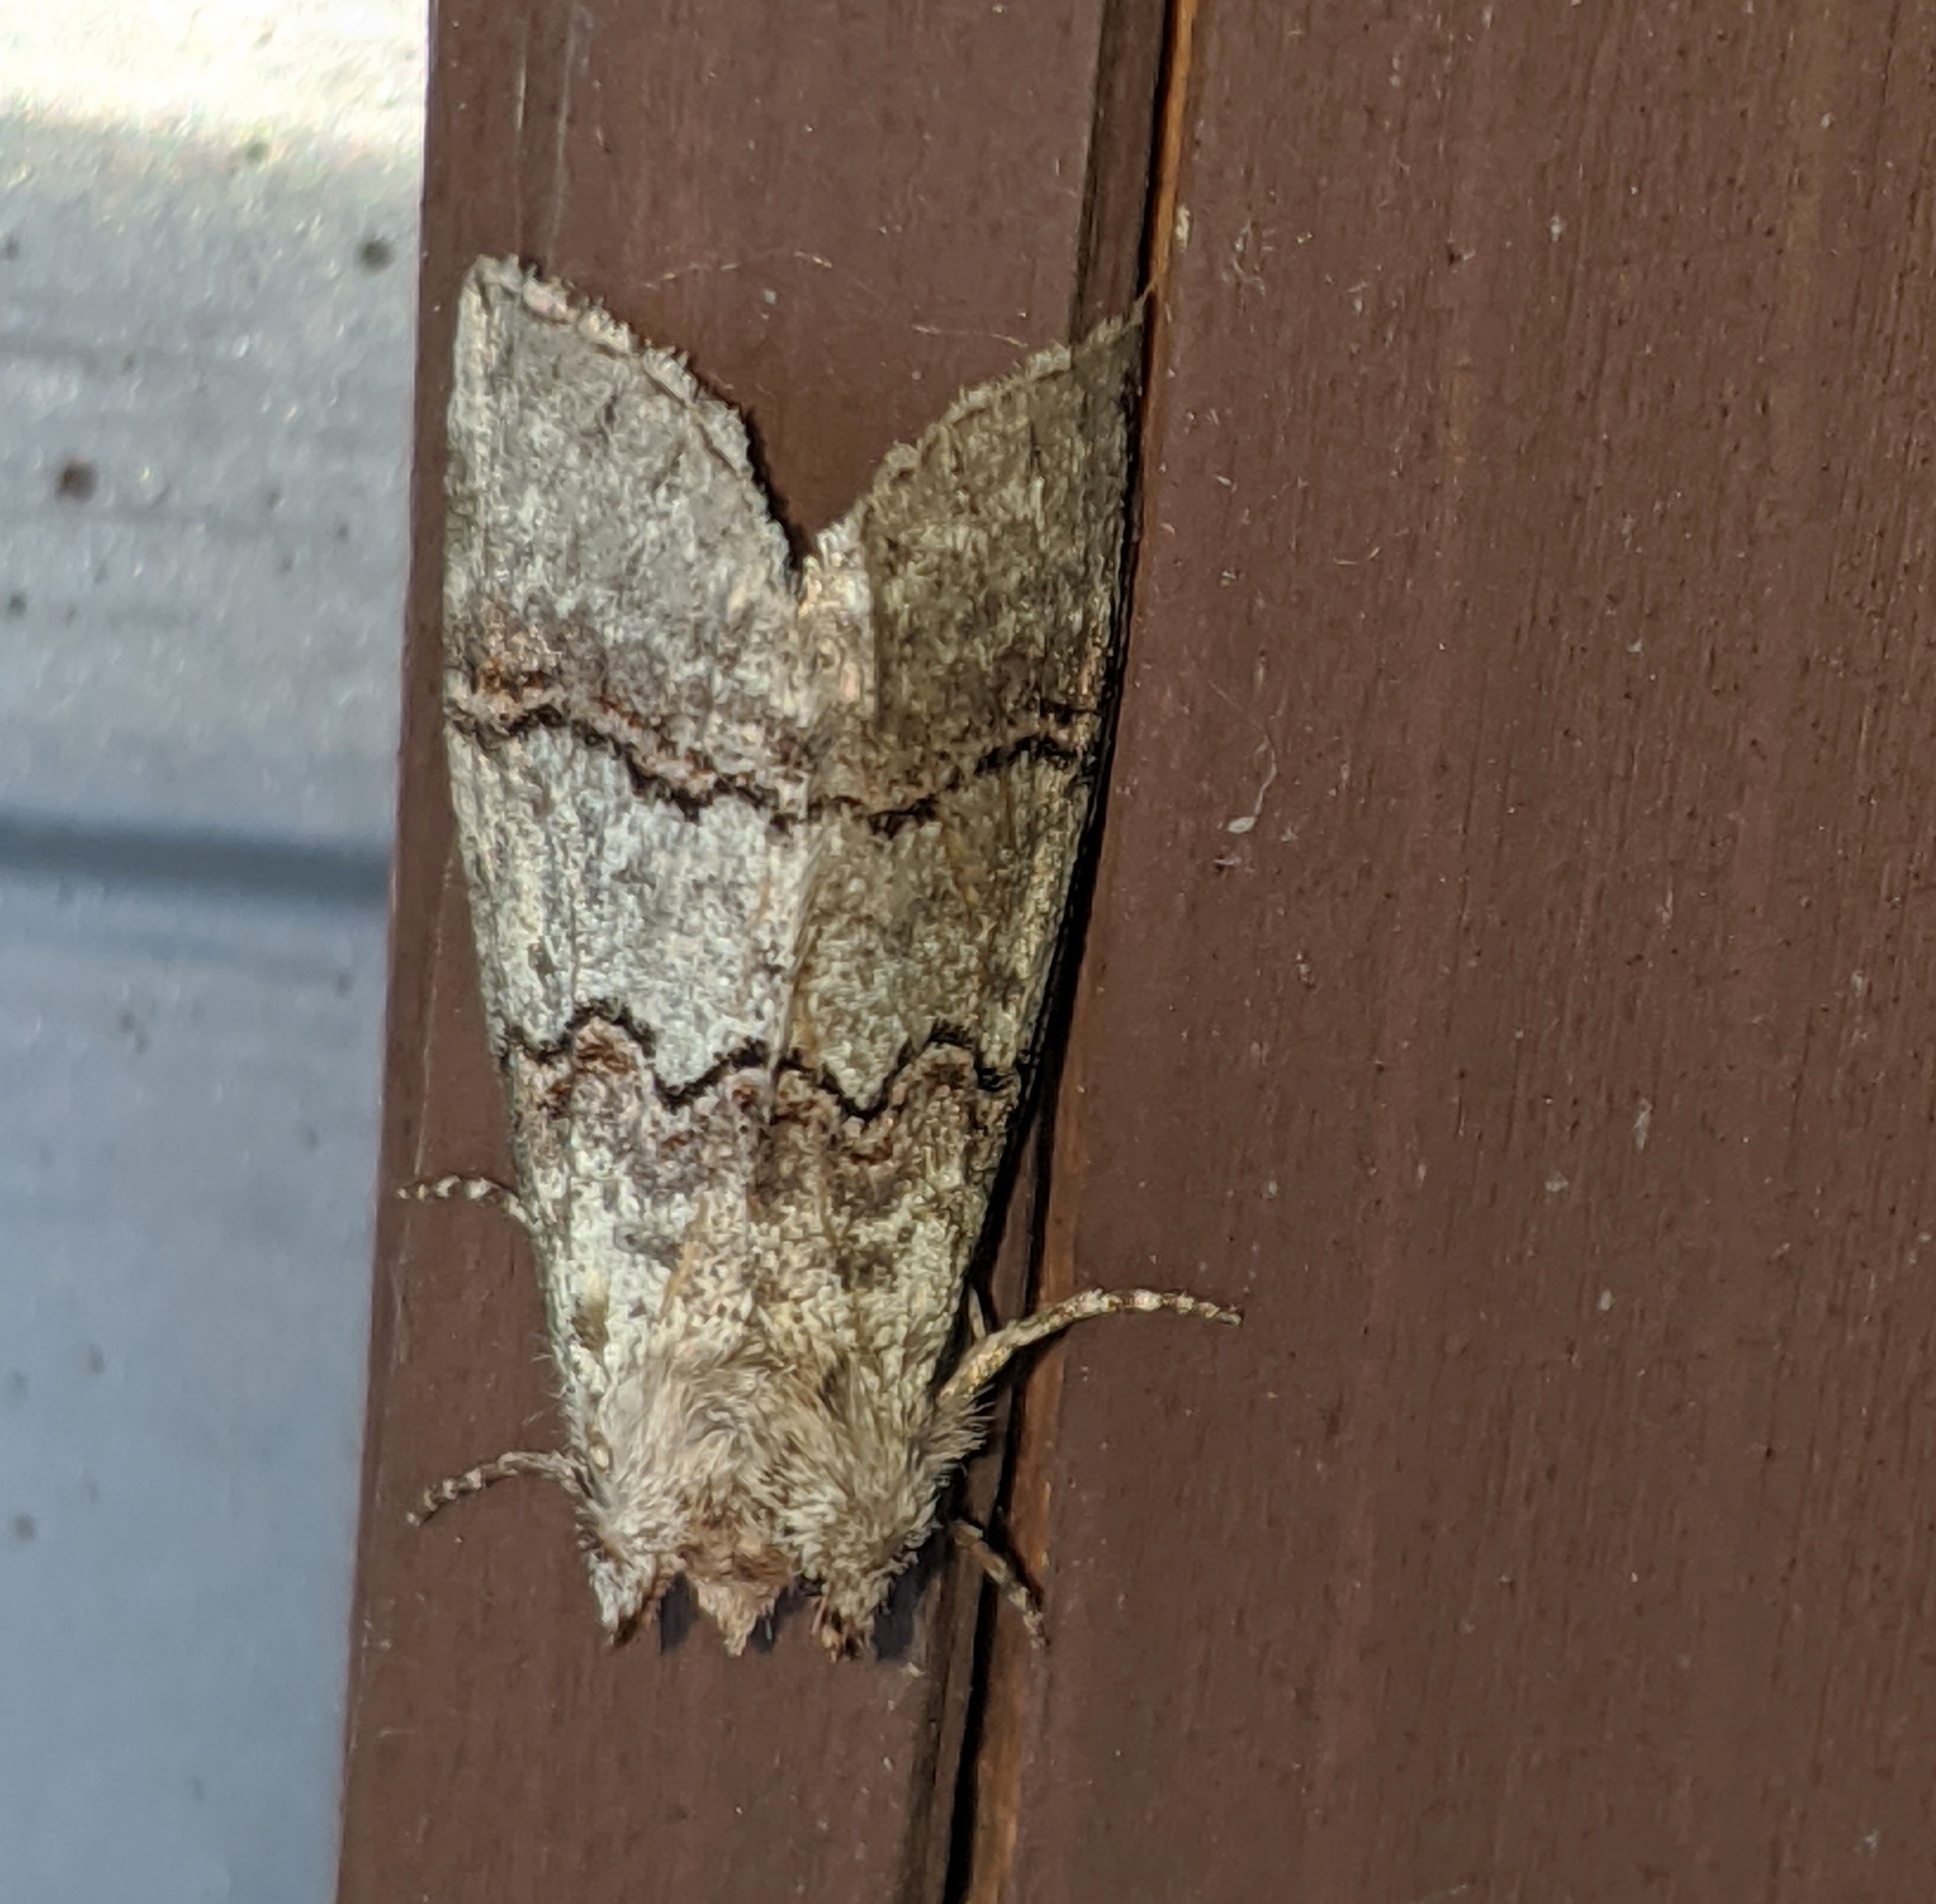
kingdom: Animalia
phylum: Arthropoda
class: Insecta
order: Lepidoptera
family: Drepanidae
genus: Ceranemota
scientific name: Ceranemota fasciata
